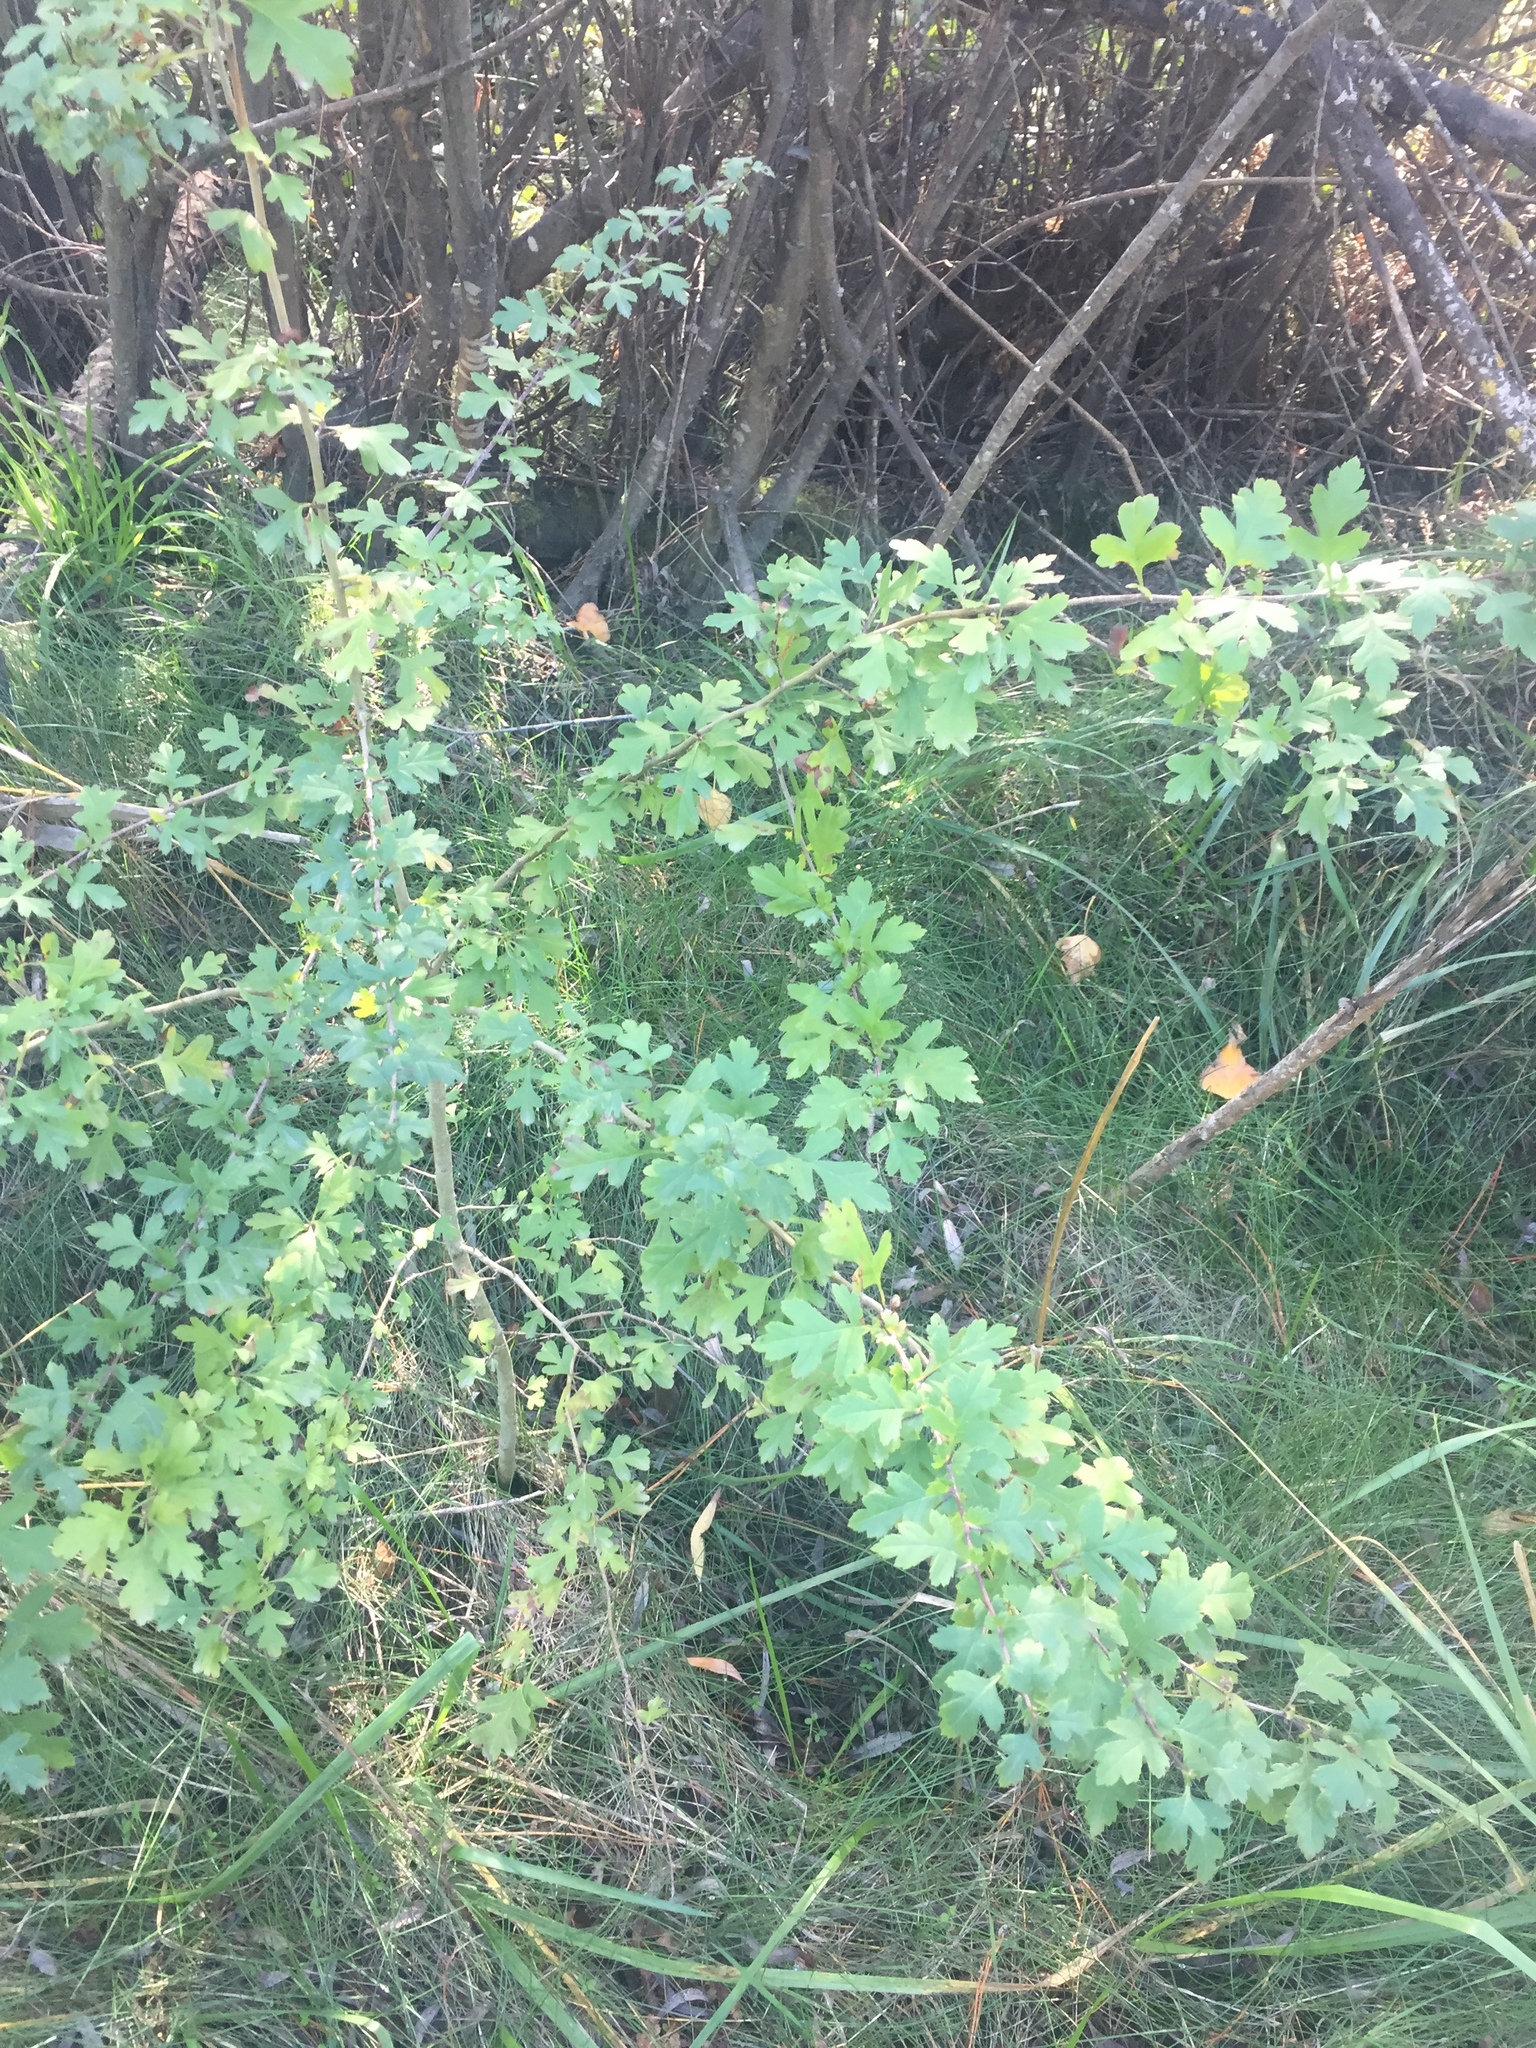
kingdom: Plantae
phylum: Tracheophyta
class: Magnoliopsida
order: Rosales
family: Rosaceae
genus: Crataegus
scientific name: Crataegus monogyna
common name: Hawthorn
